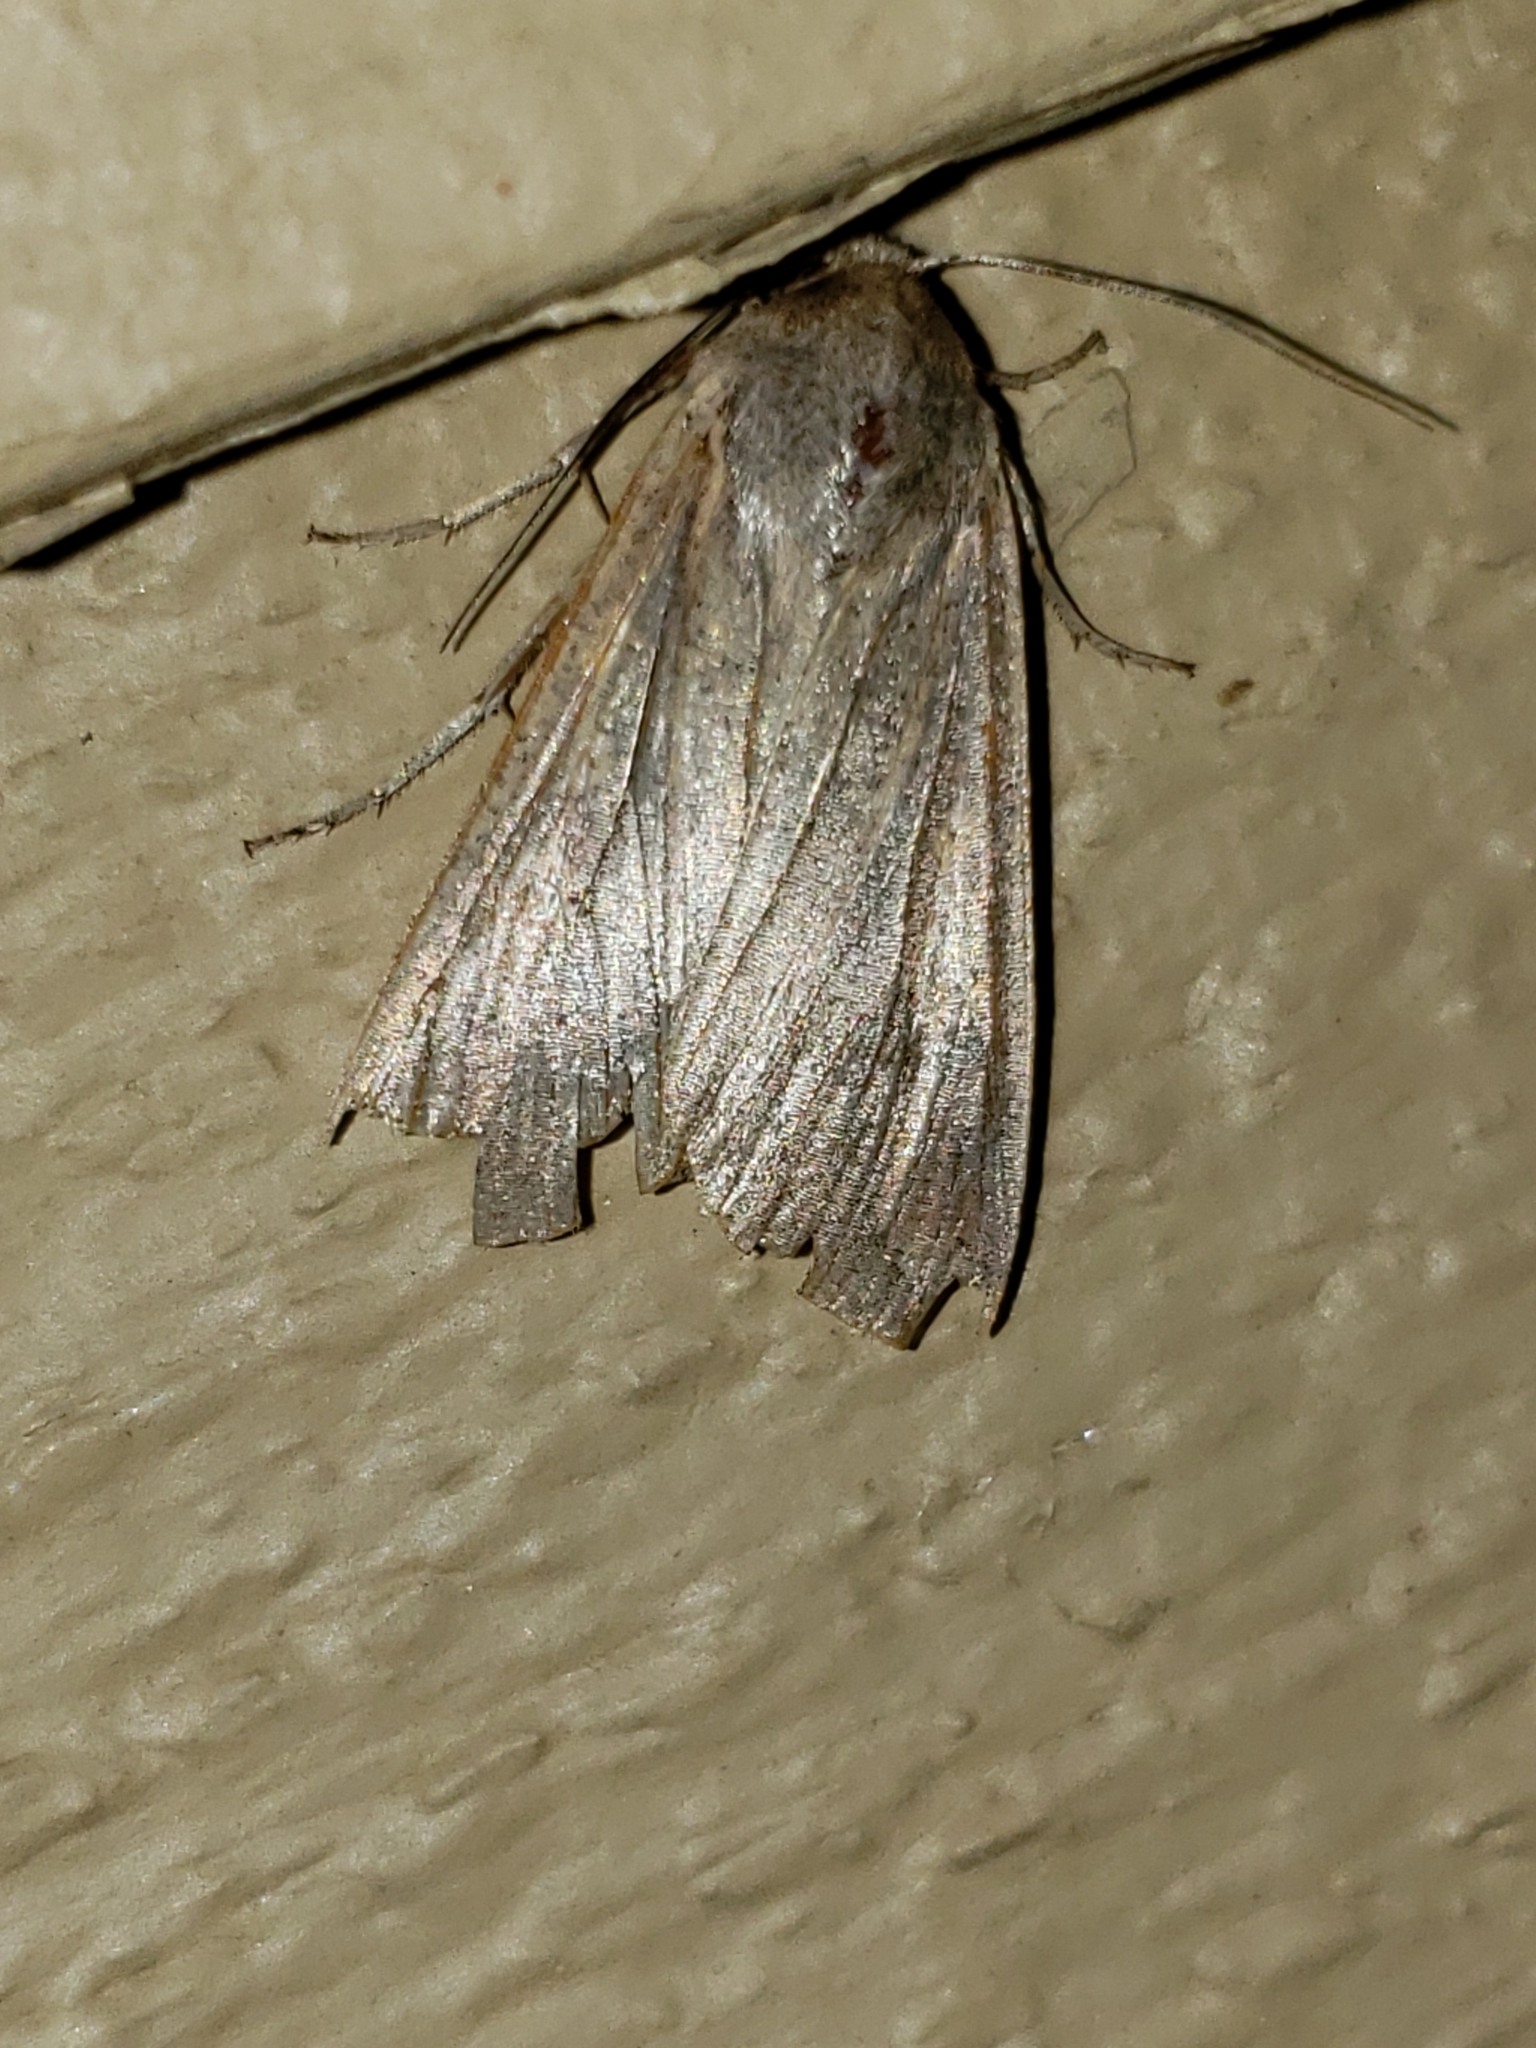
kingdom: Animalia
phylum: Arthropoda
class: Insecta
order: Lepidoptera
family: Noctuidae
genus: Mythimna
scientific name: Mythimna unipuncta
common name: White-speck
